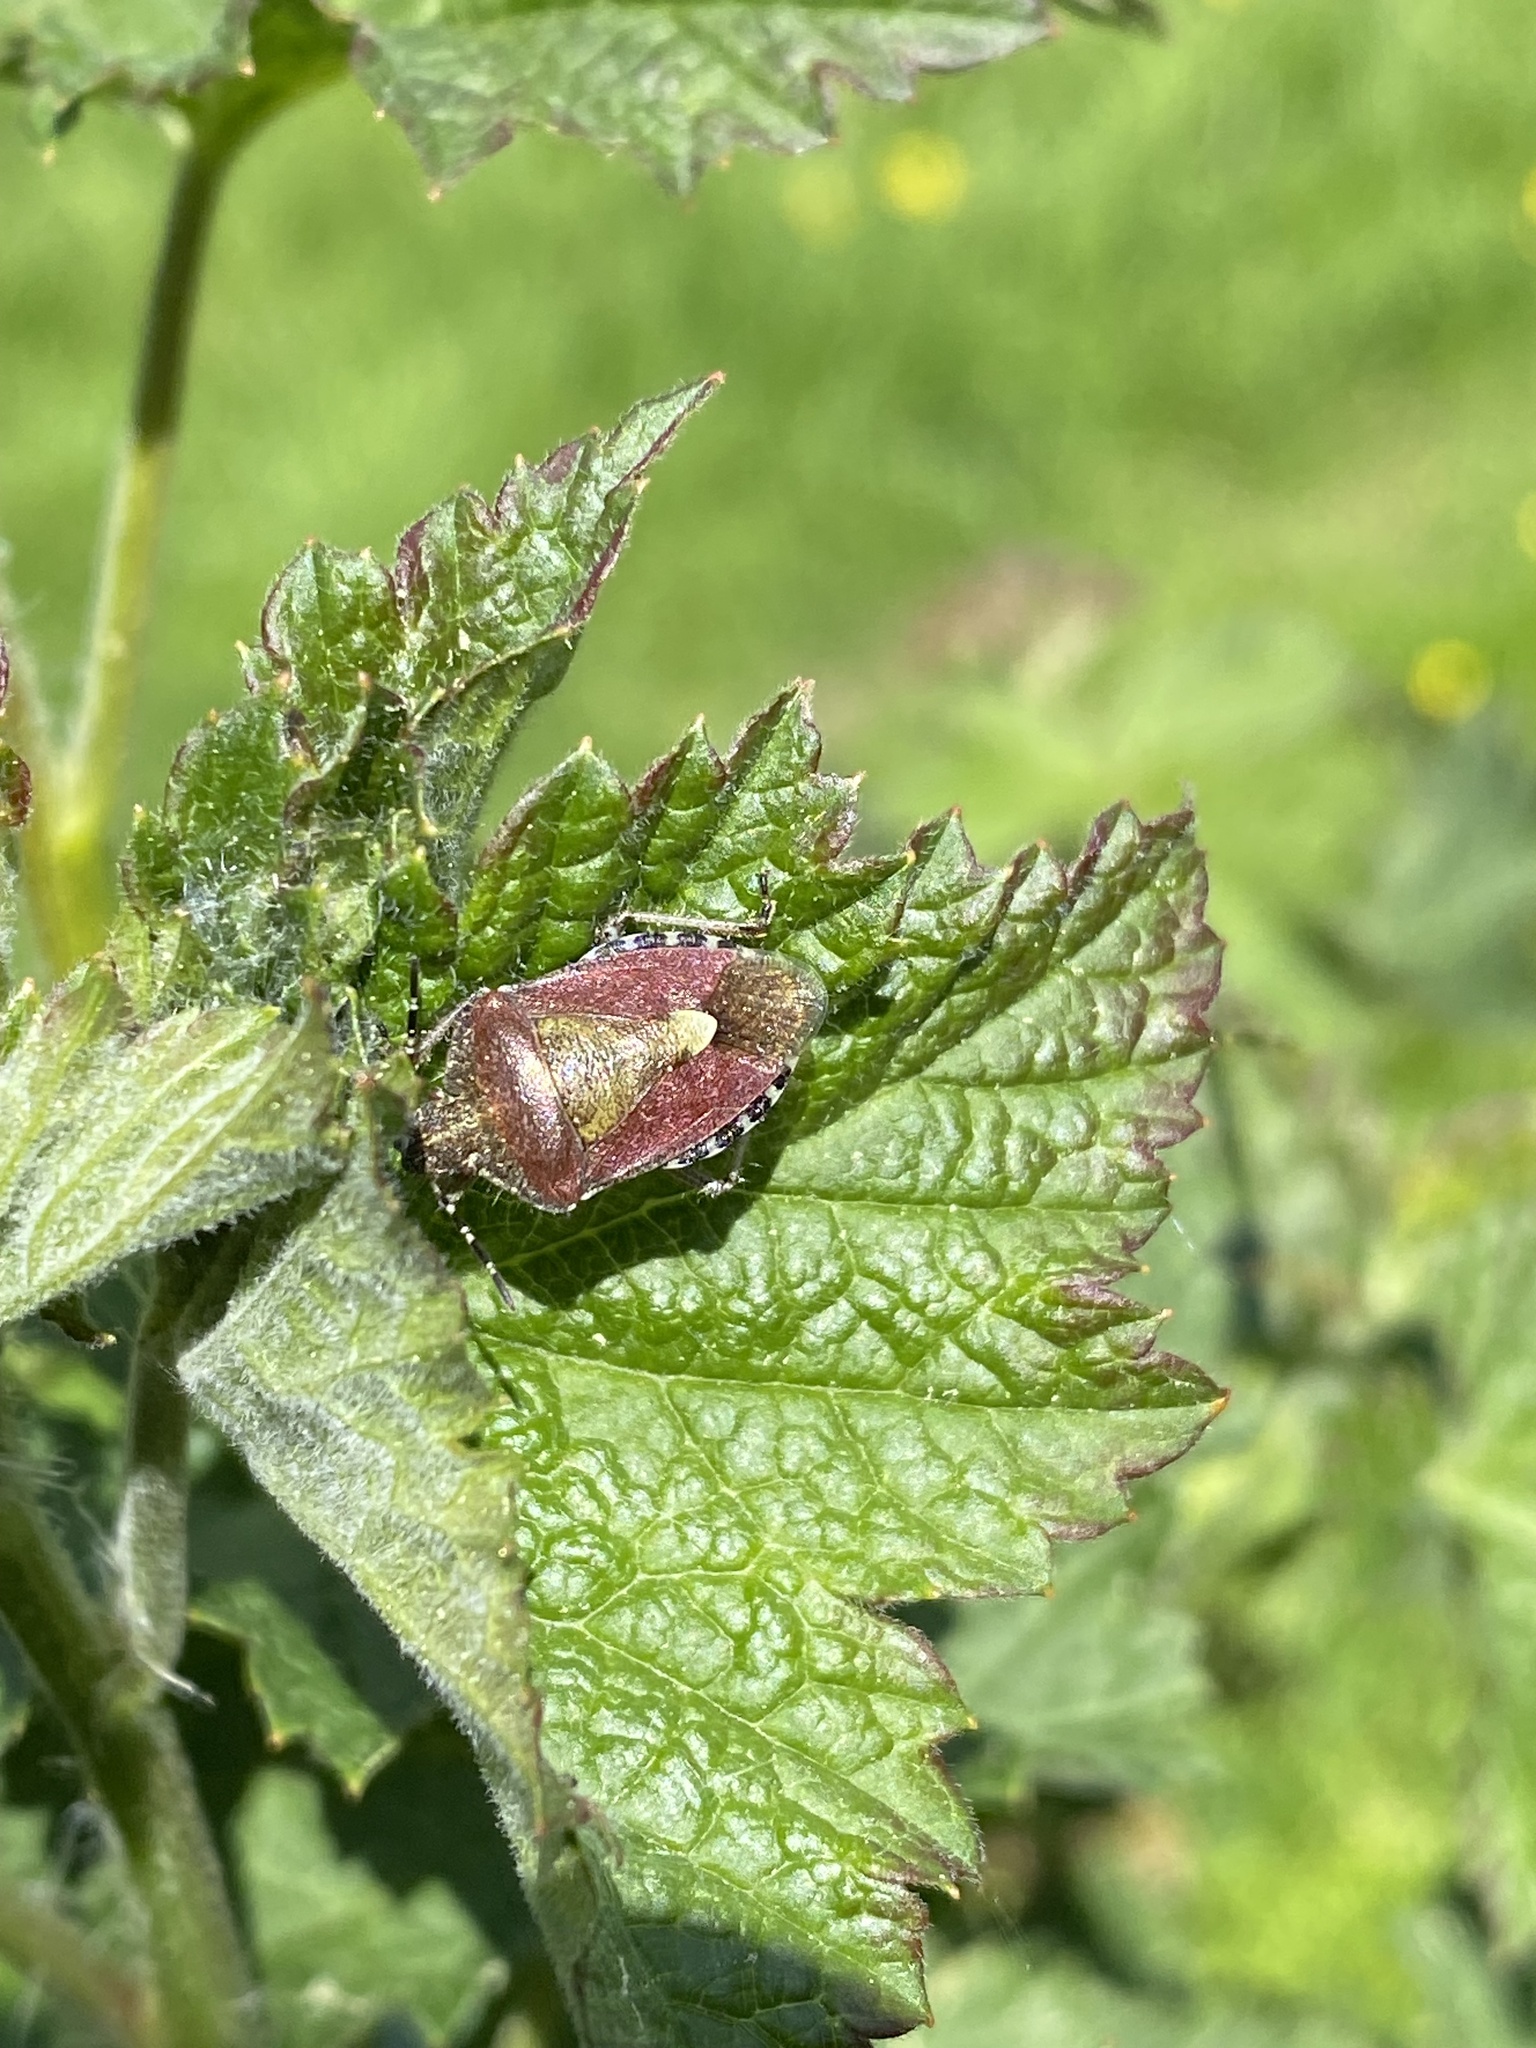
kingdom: Animalia
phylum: Arthropoda
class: Insecta
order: Hemiptera
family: Pentatomidae
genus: Dolycoris
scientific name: Dolycoris baccarum
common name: Sloe bug
